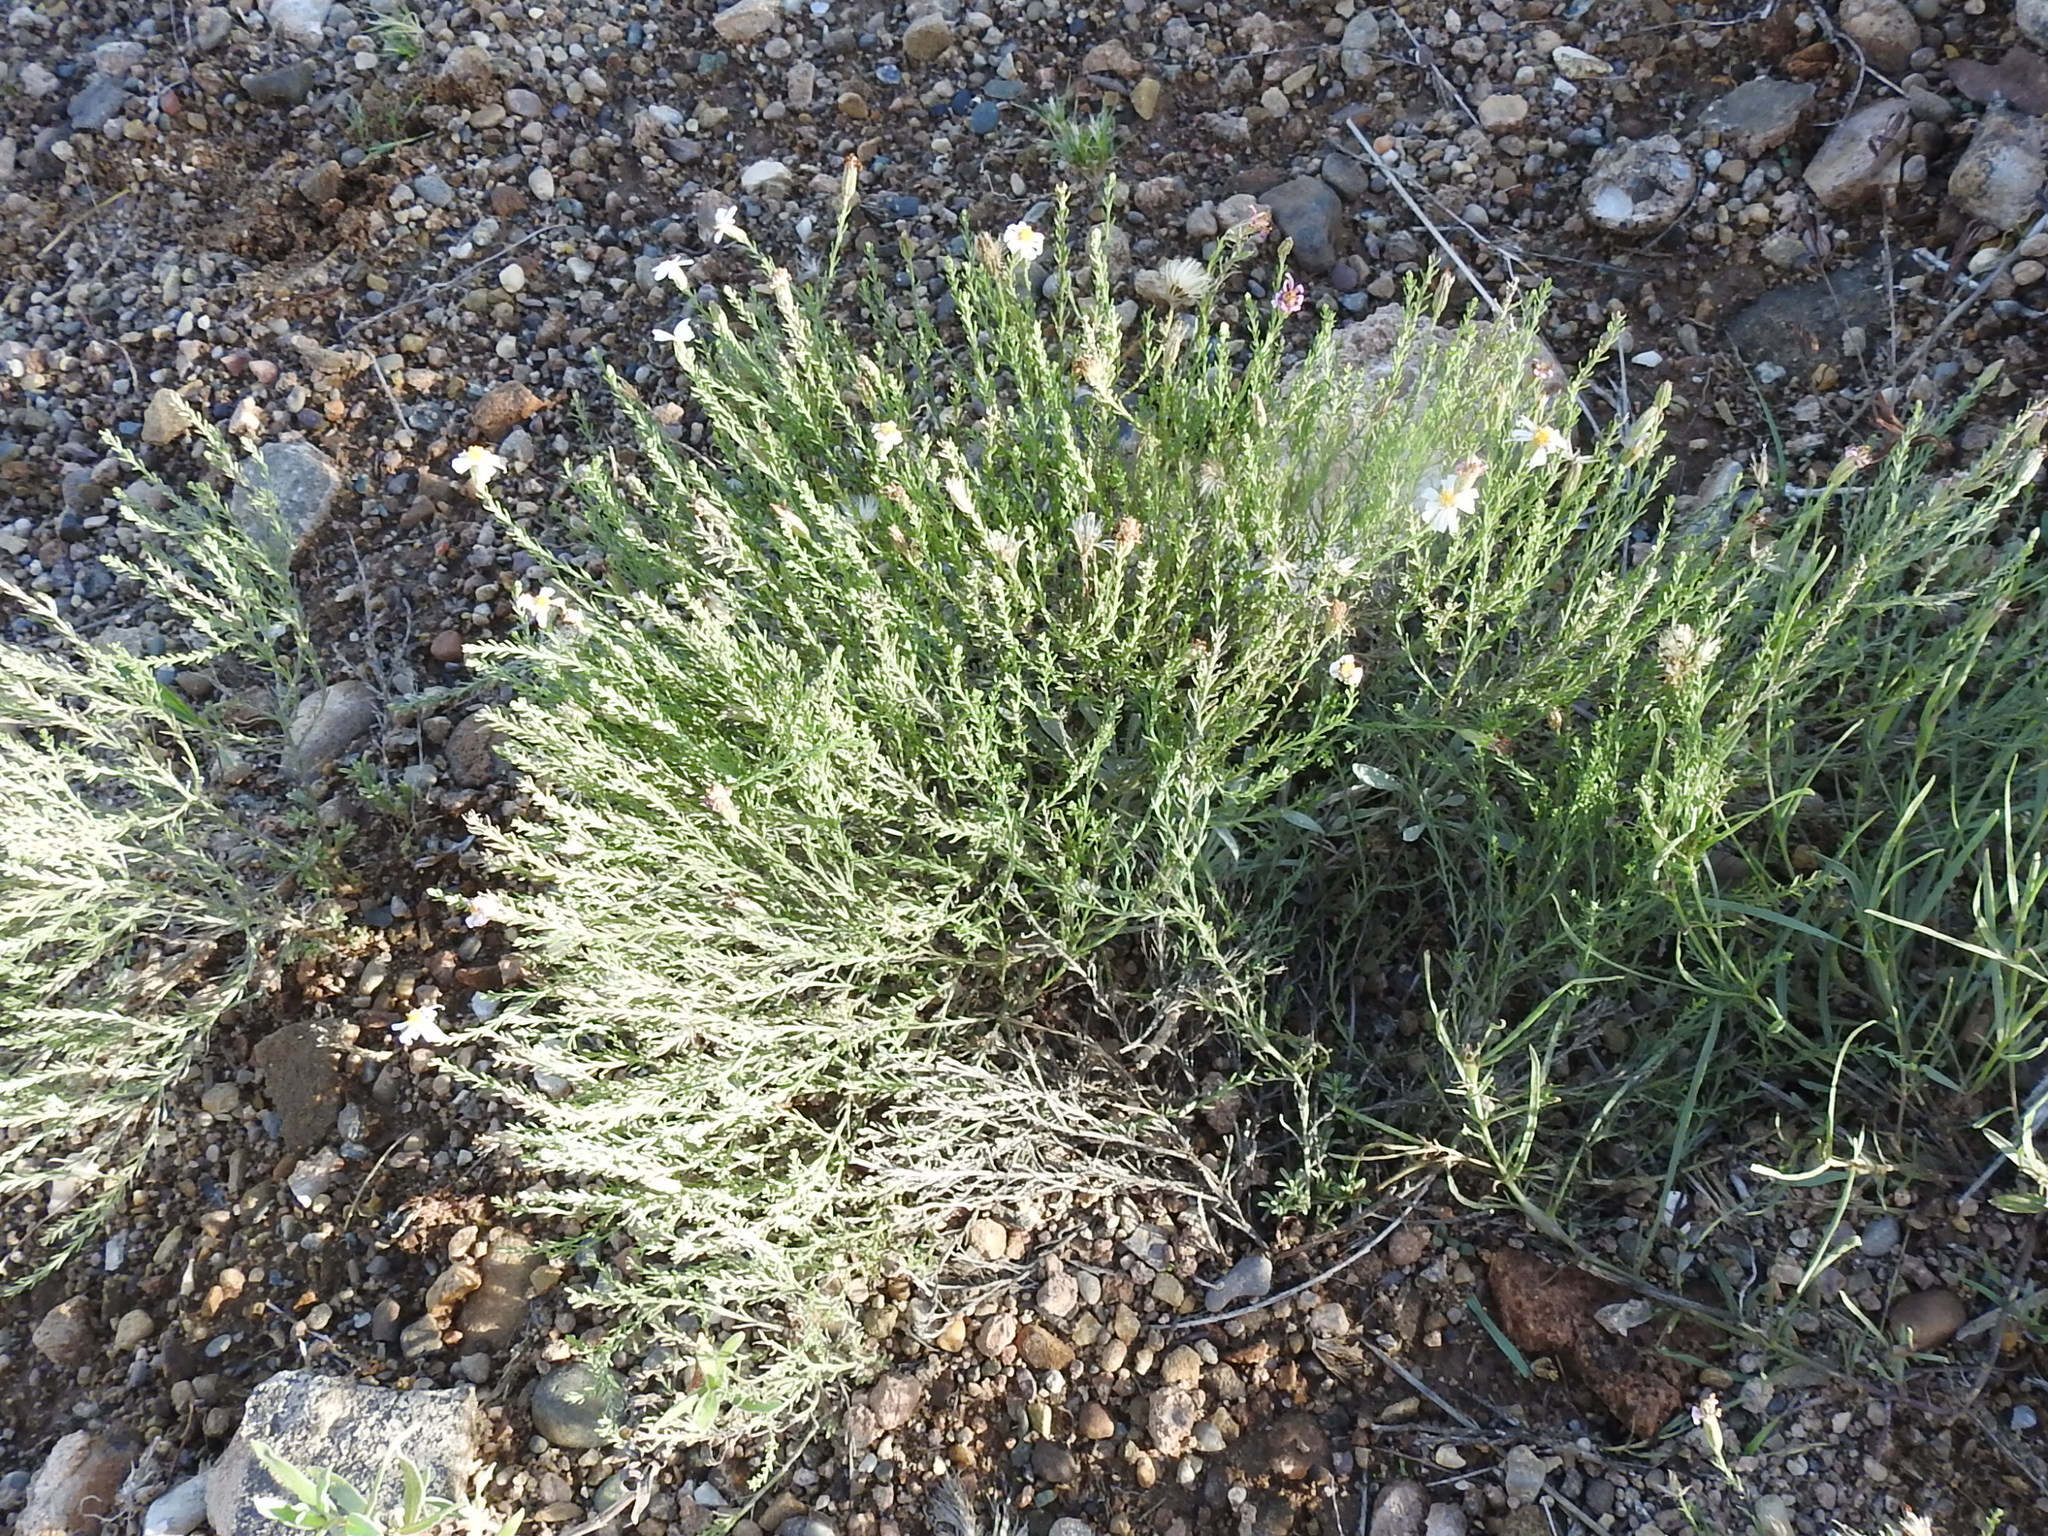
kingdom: Plantae
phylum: Tracheophyta
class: Magnoliopsida
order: Asterales
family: Asteraceae
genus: Chaetopappa
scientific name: Chaetopappa ericoides
